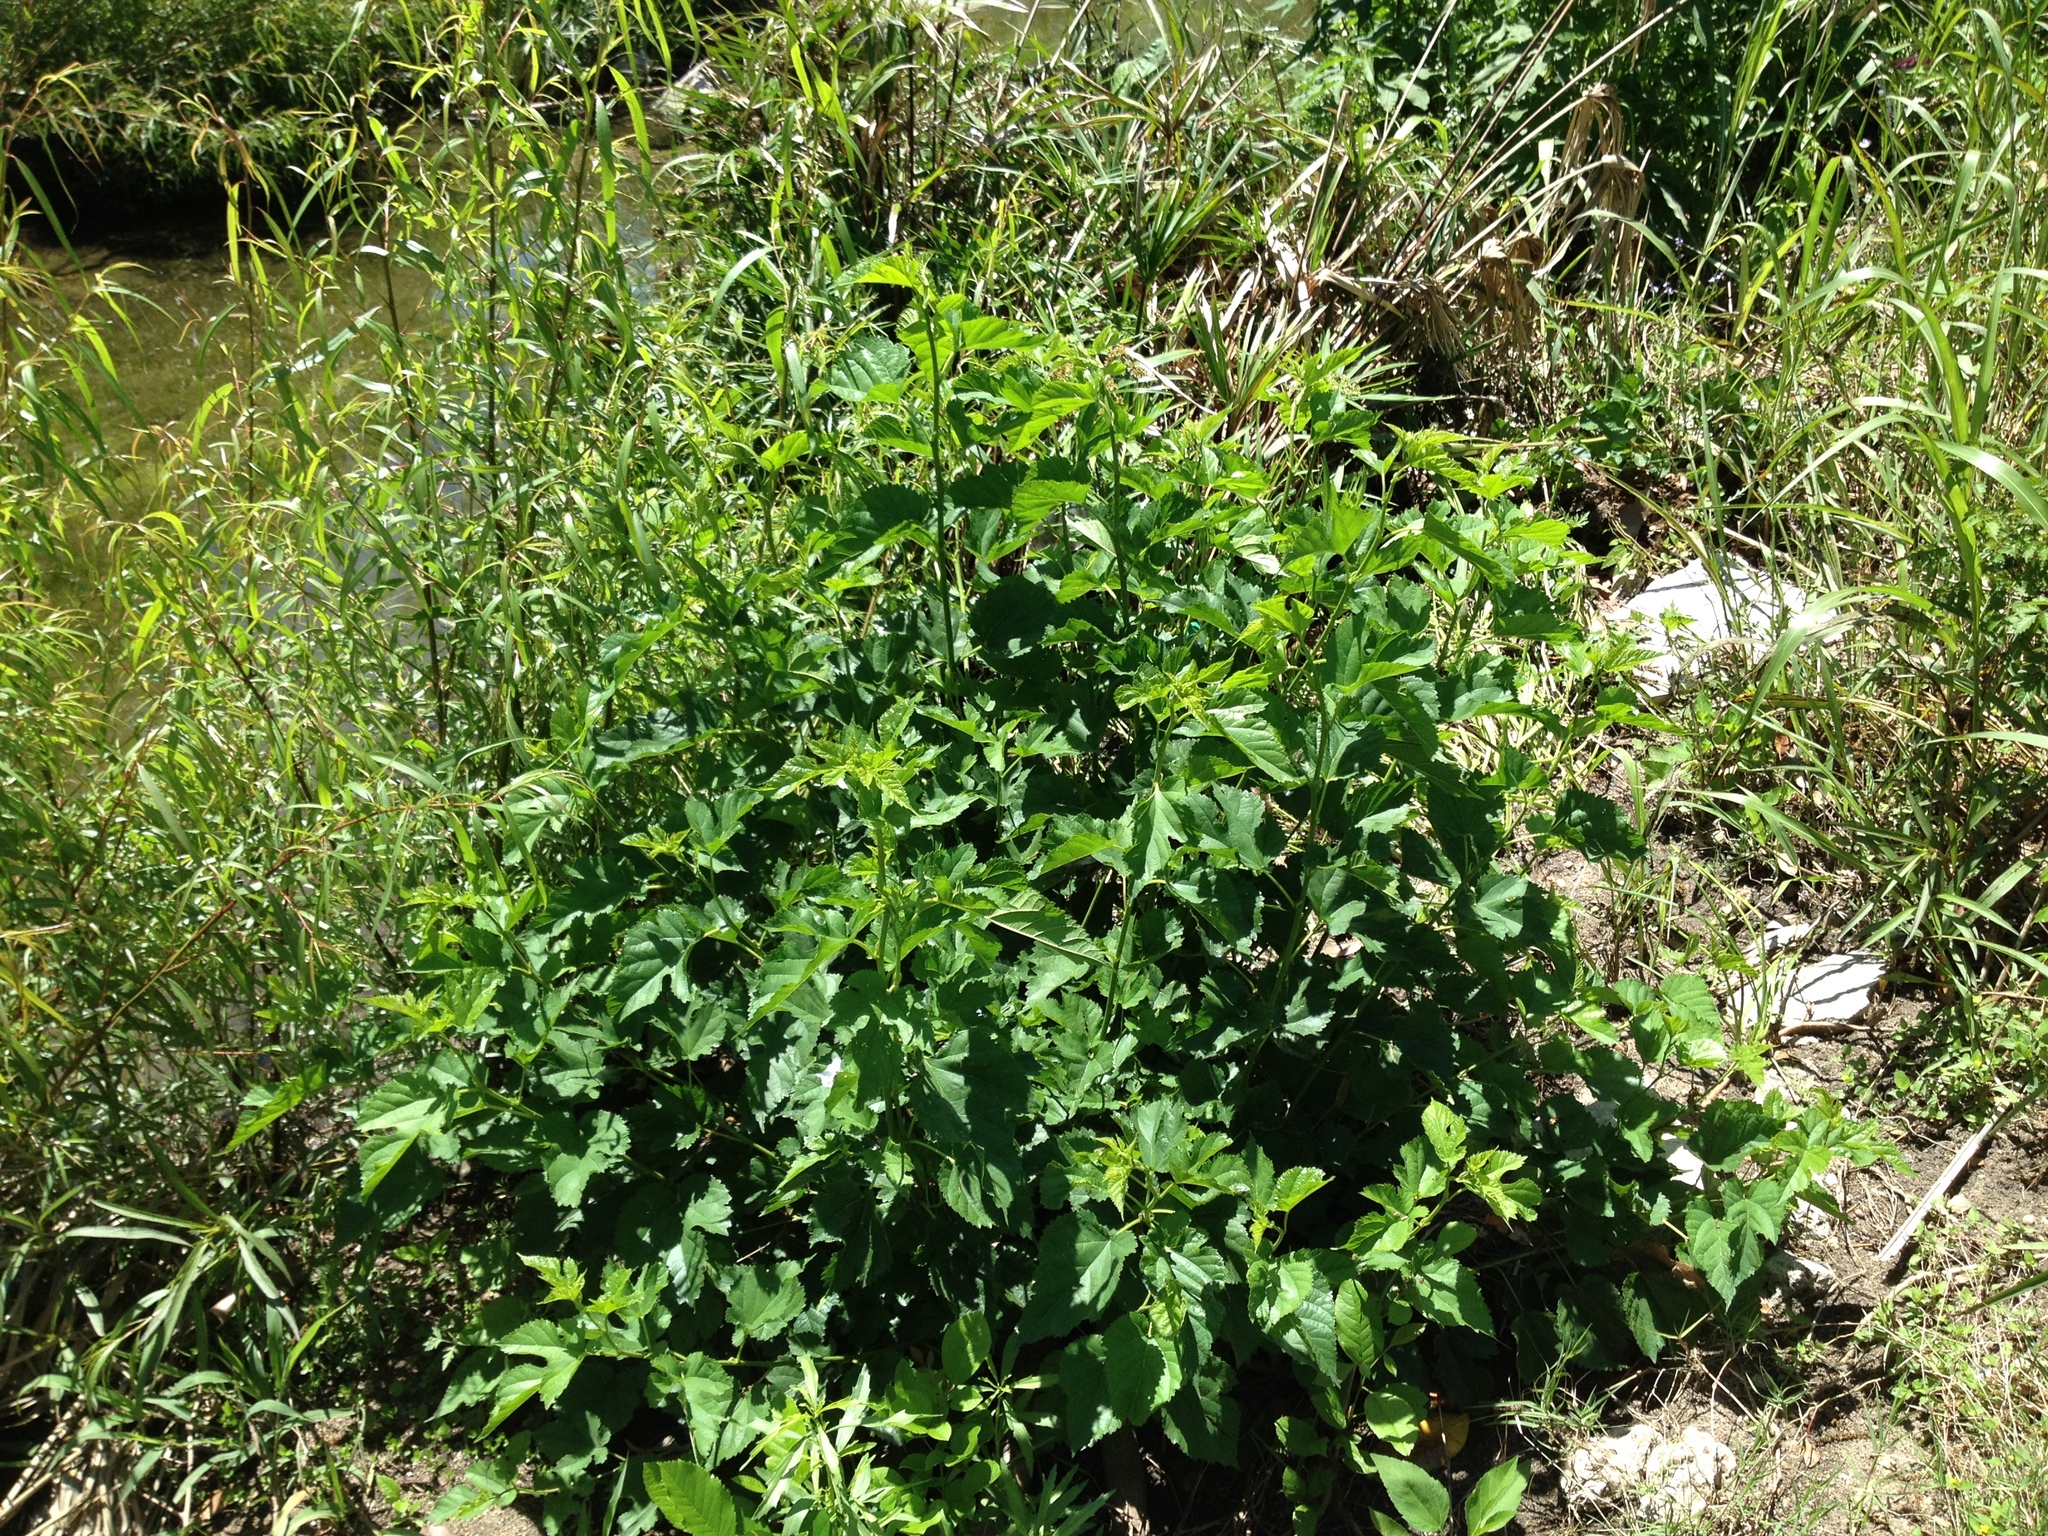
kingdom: Plantae
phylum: Tracheophyta
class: Magnoliopsida
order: Malpighiales
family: Salicaceae
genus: Salix
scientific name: Salix nigra
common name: Black willow
